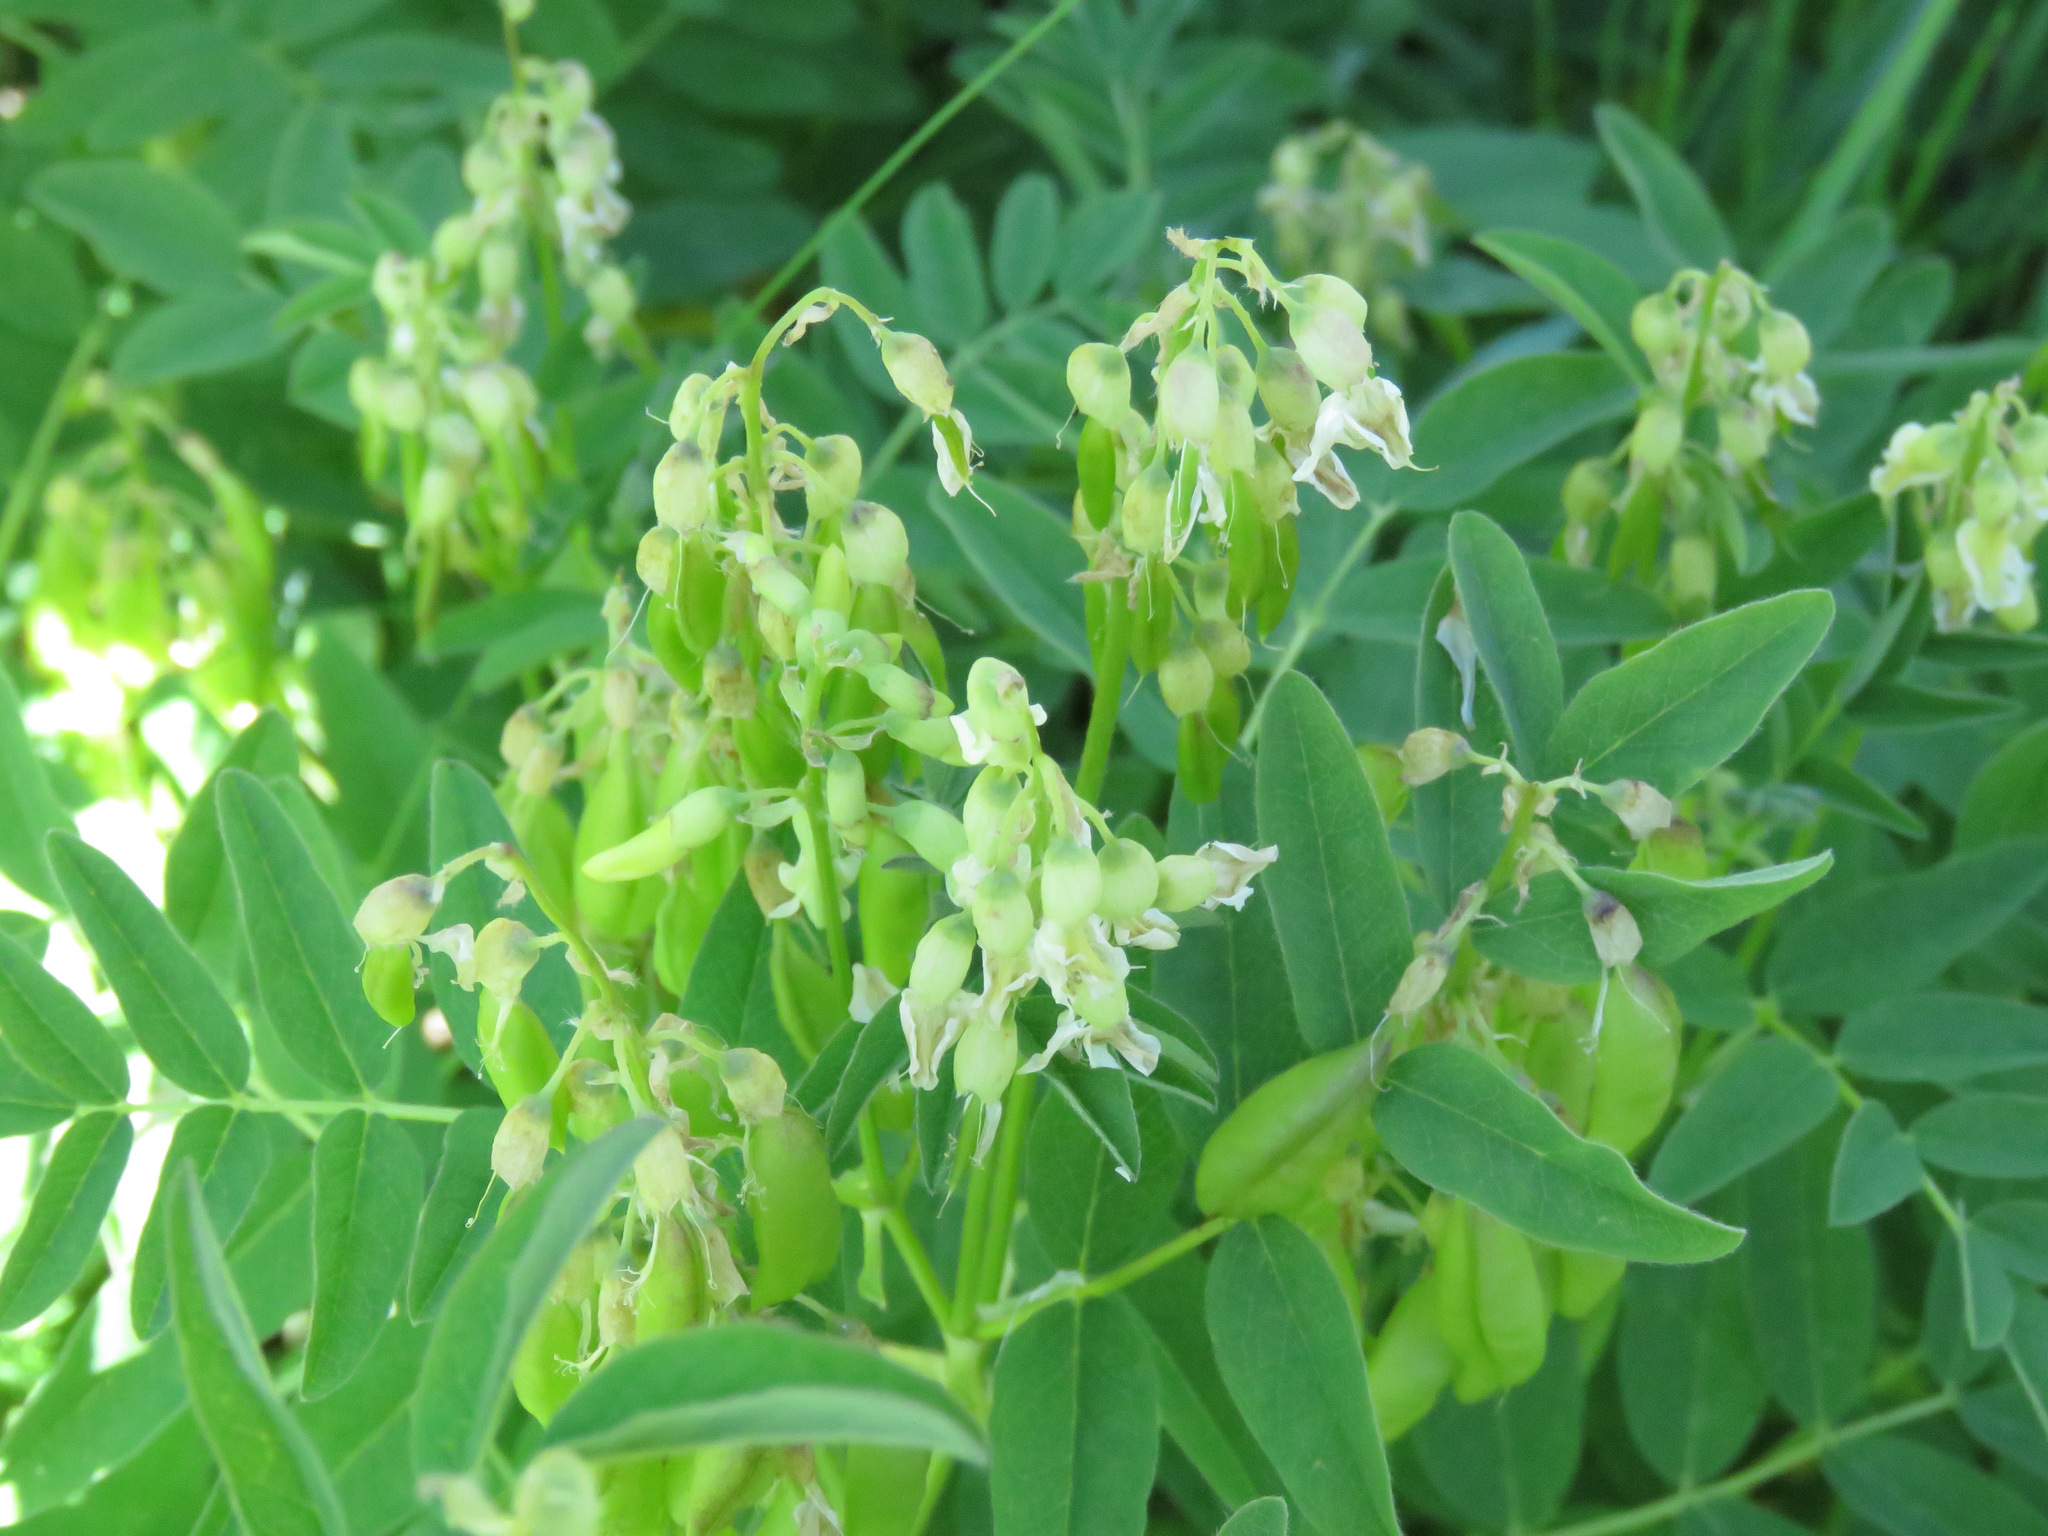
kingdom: Plantae
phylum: Tracheophyta
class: Magnoliopsida
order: Fabales
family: Fabaceae
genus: Astragalus
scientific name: Astragalus americanus
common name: American milk-vetch
